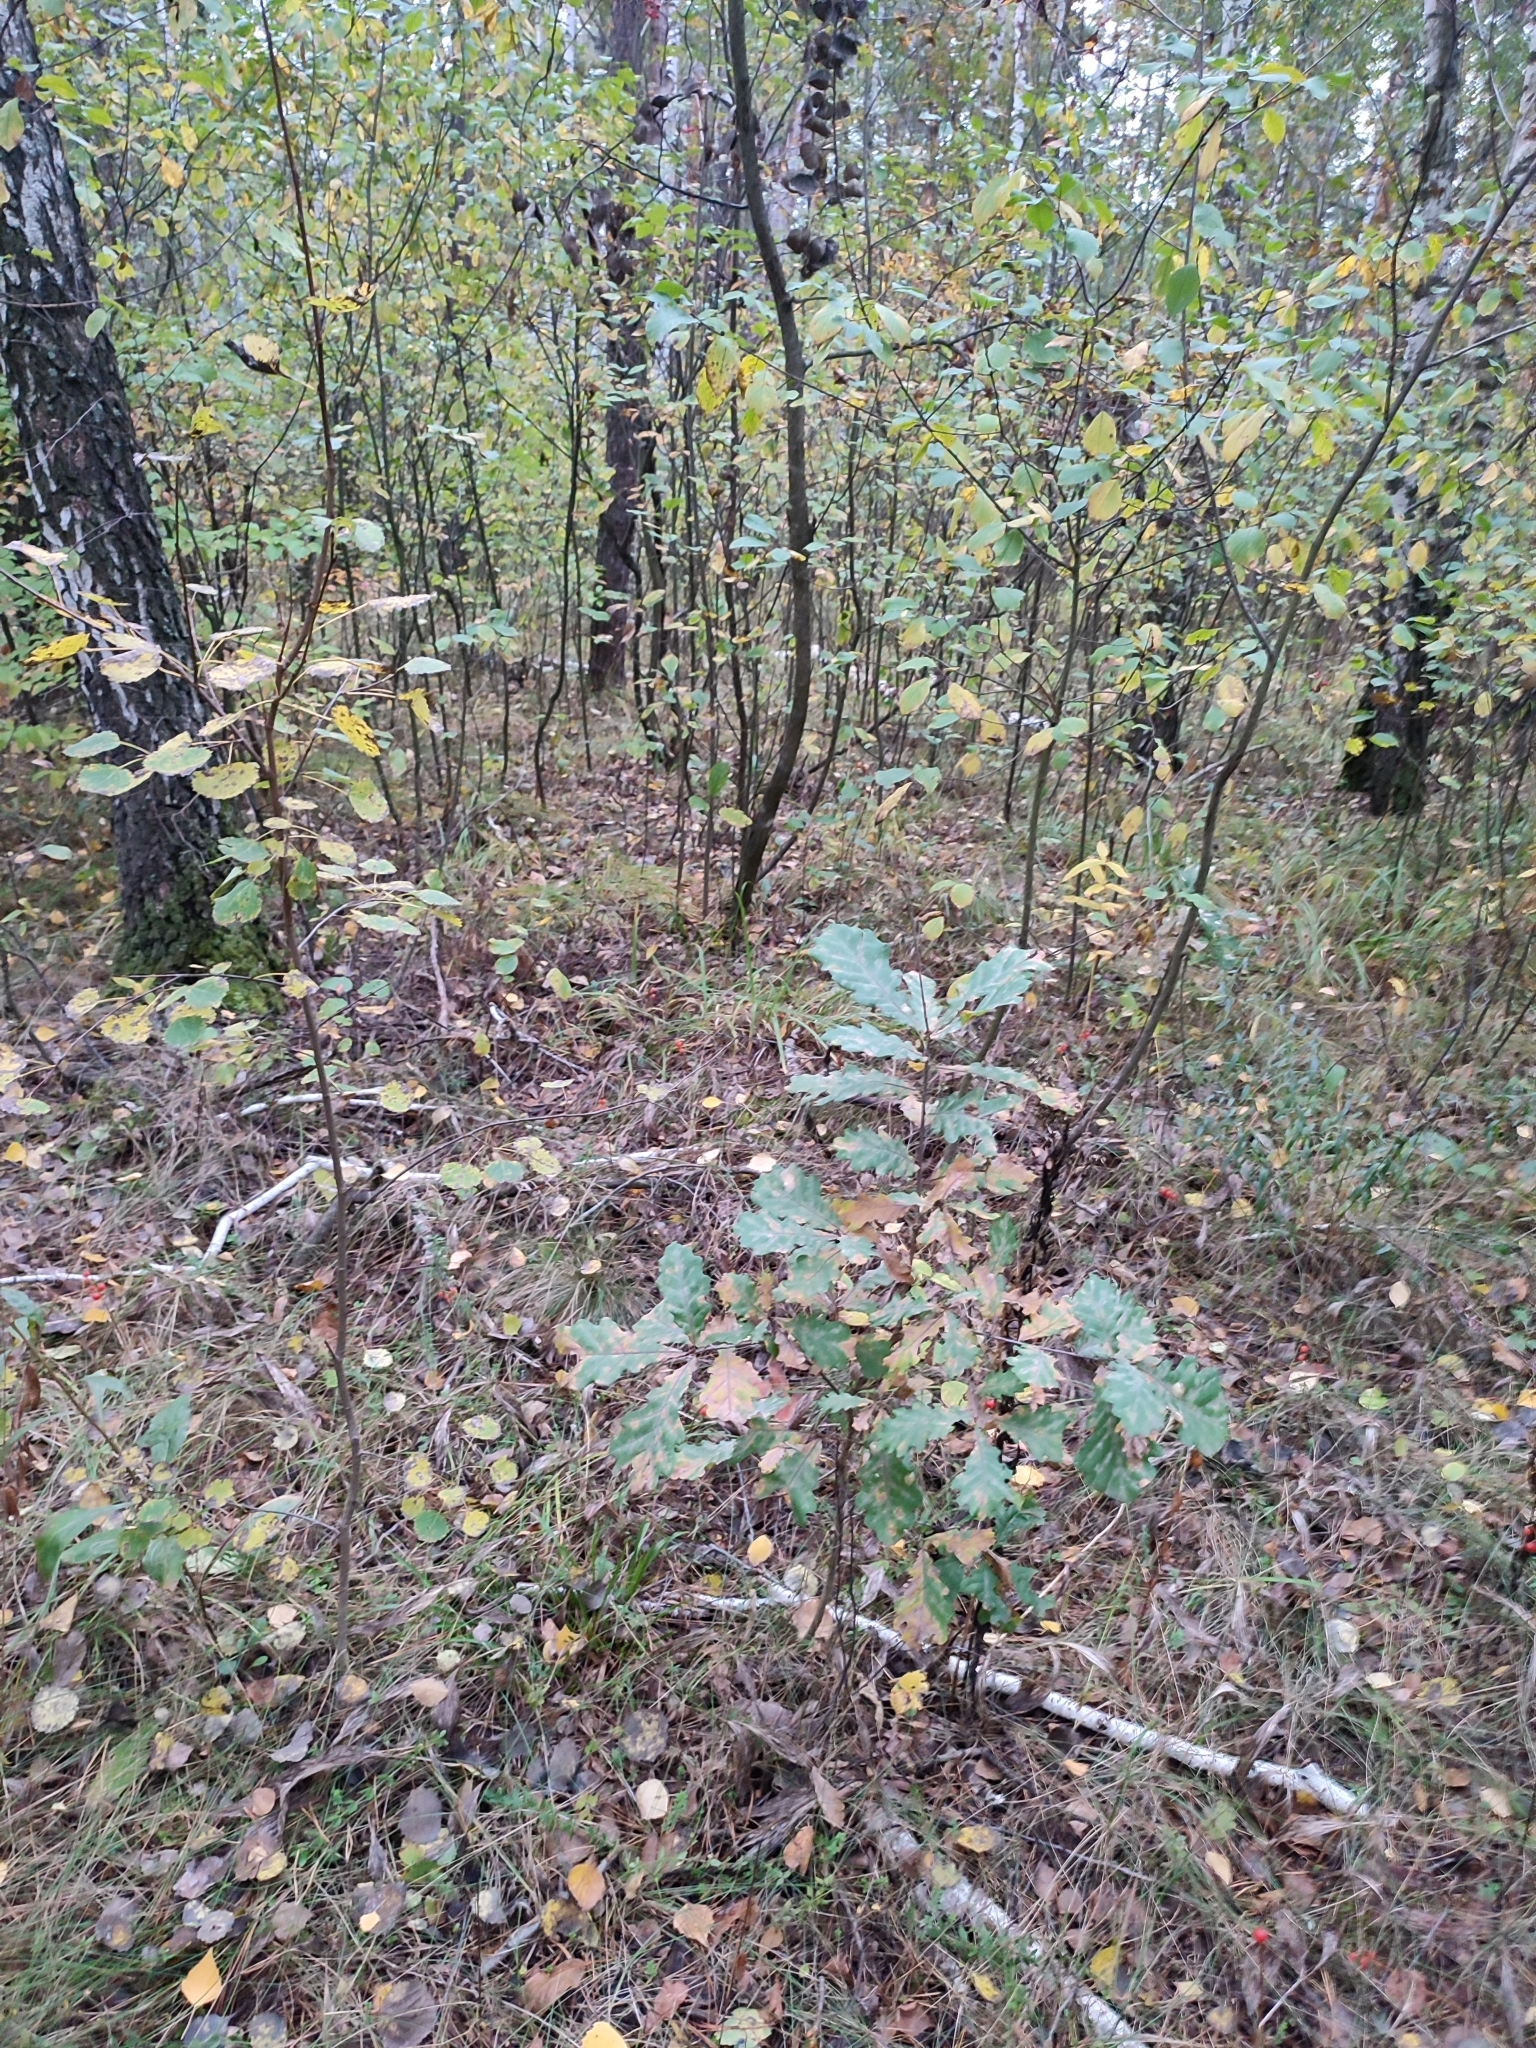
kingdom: Plantae
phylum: Tracheophyta
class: Magnoliopsida
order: Fagales
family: Fagaceae
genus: Quercus
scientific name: Quercus robur
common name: Pedunculate oak
